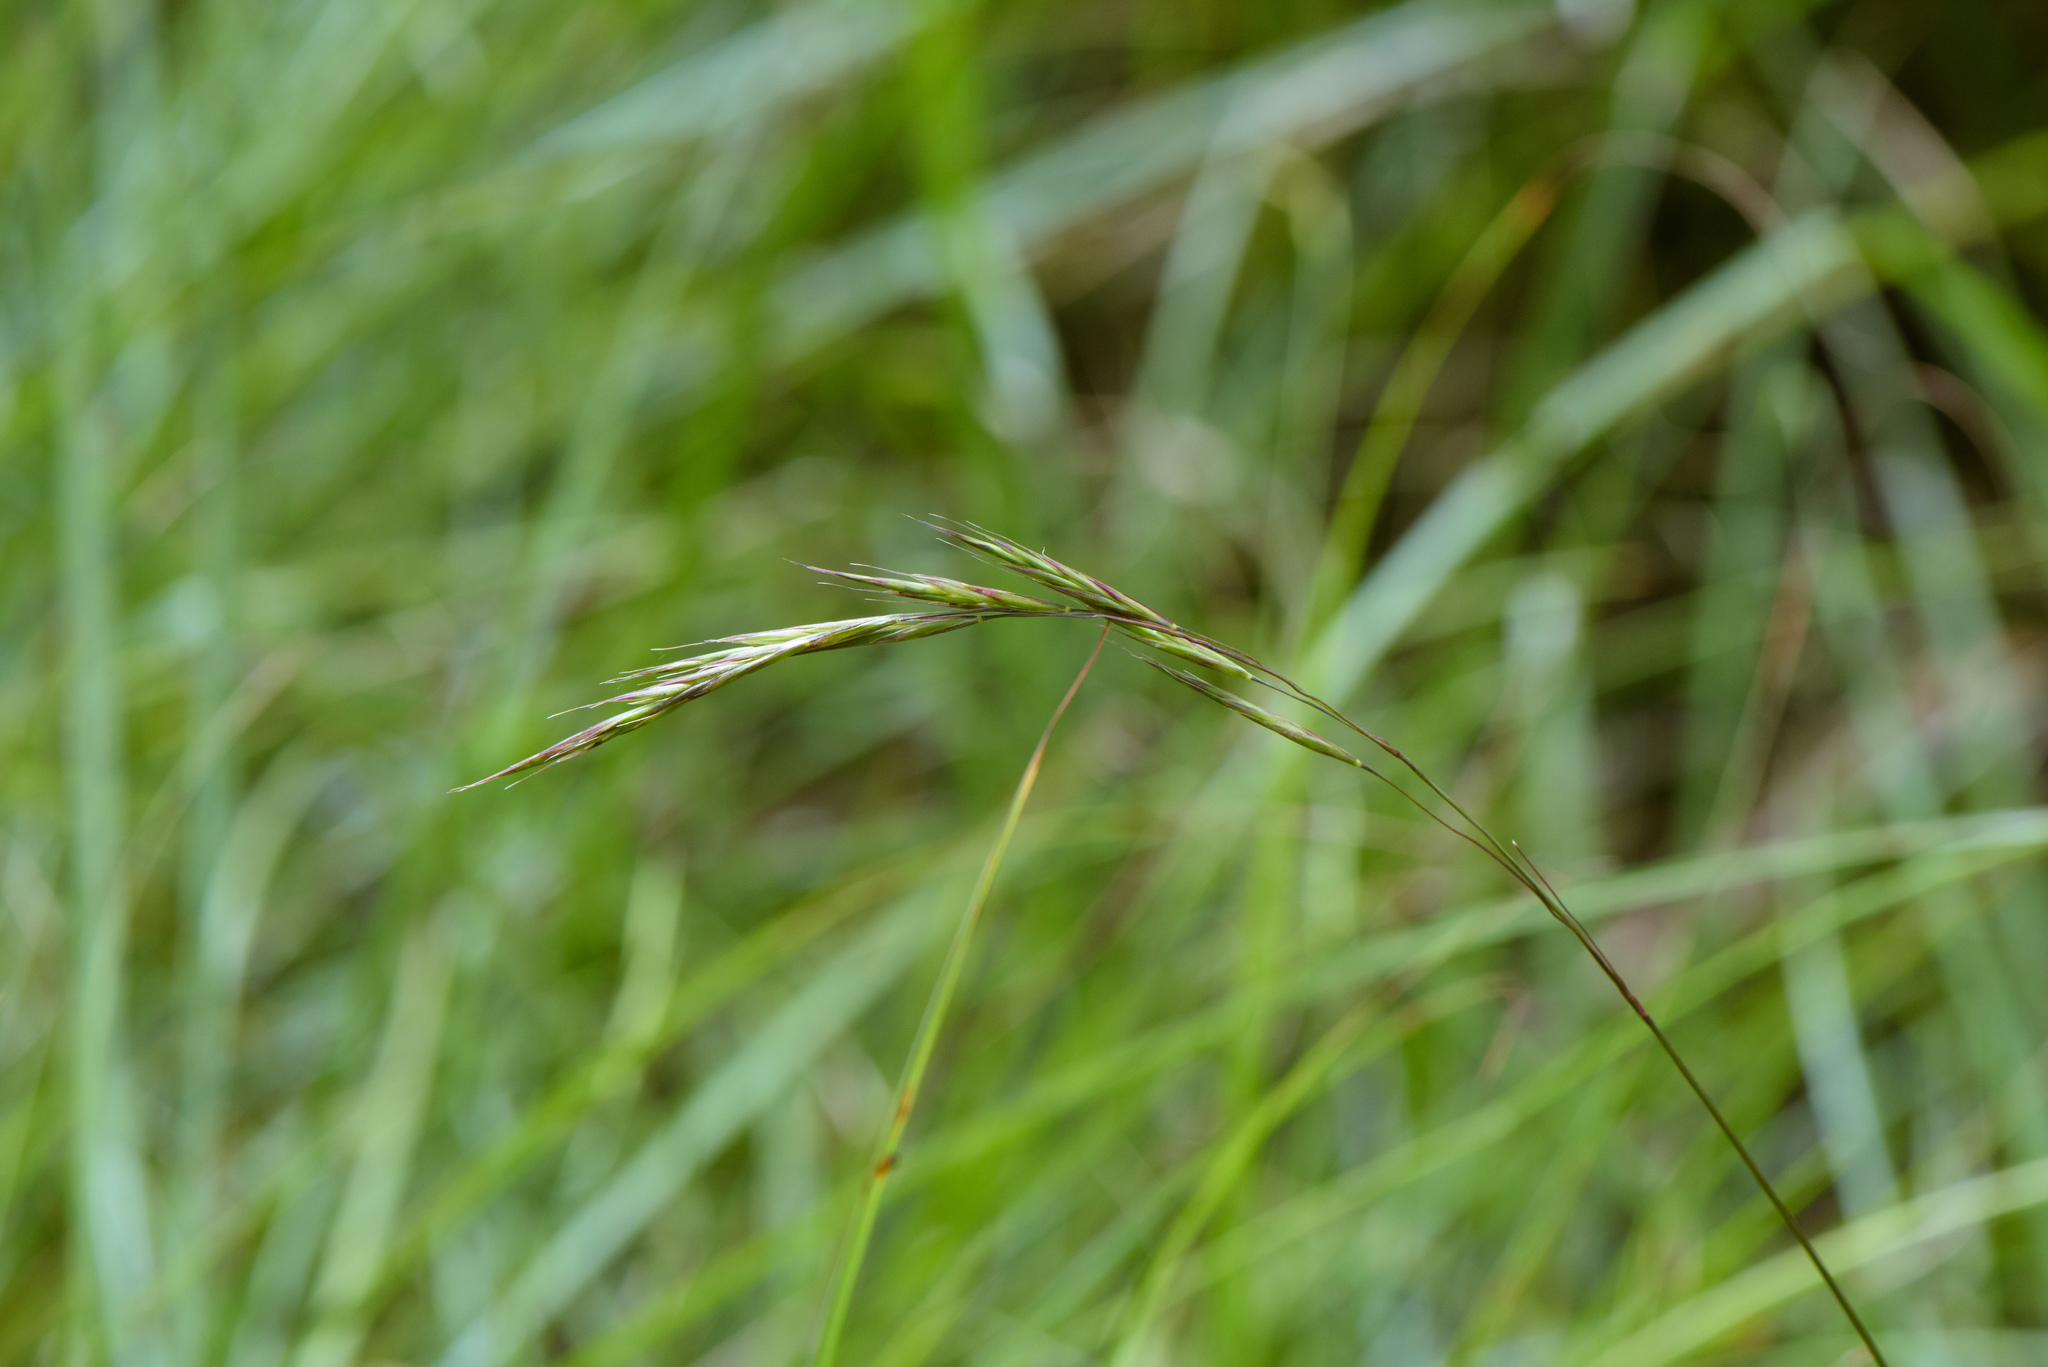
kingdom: Plantae
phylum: Tracheophyta
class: Liliopsida
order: Poales
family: Poaceae
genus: Bromus
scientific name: Bromus morrisonensis
